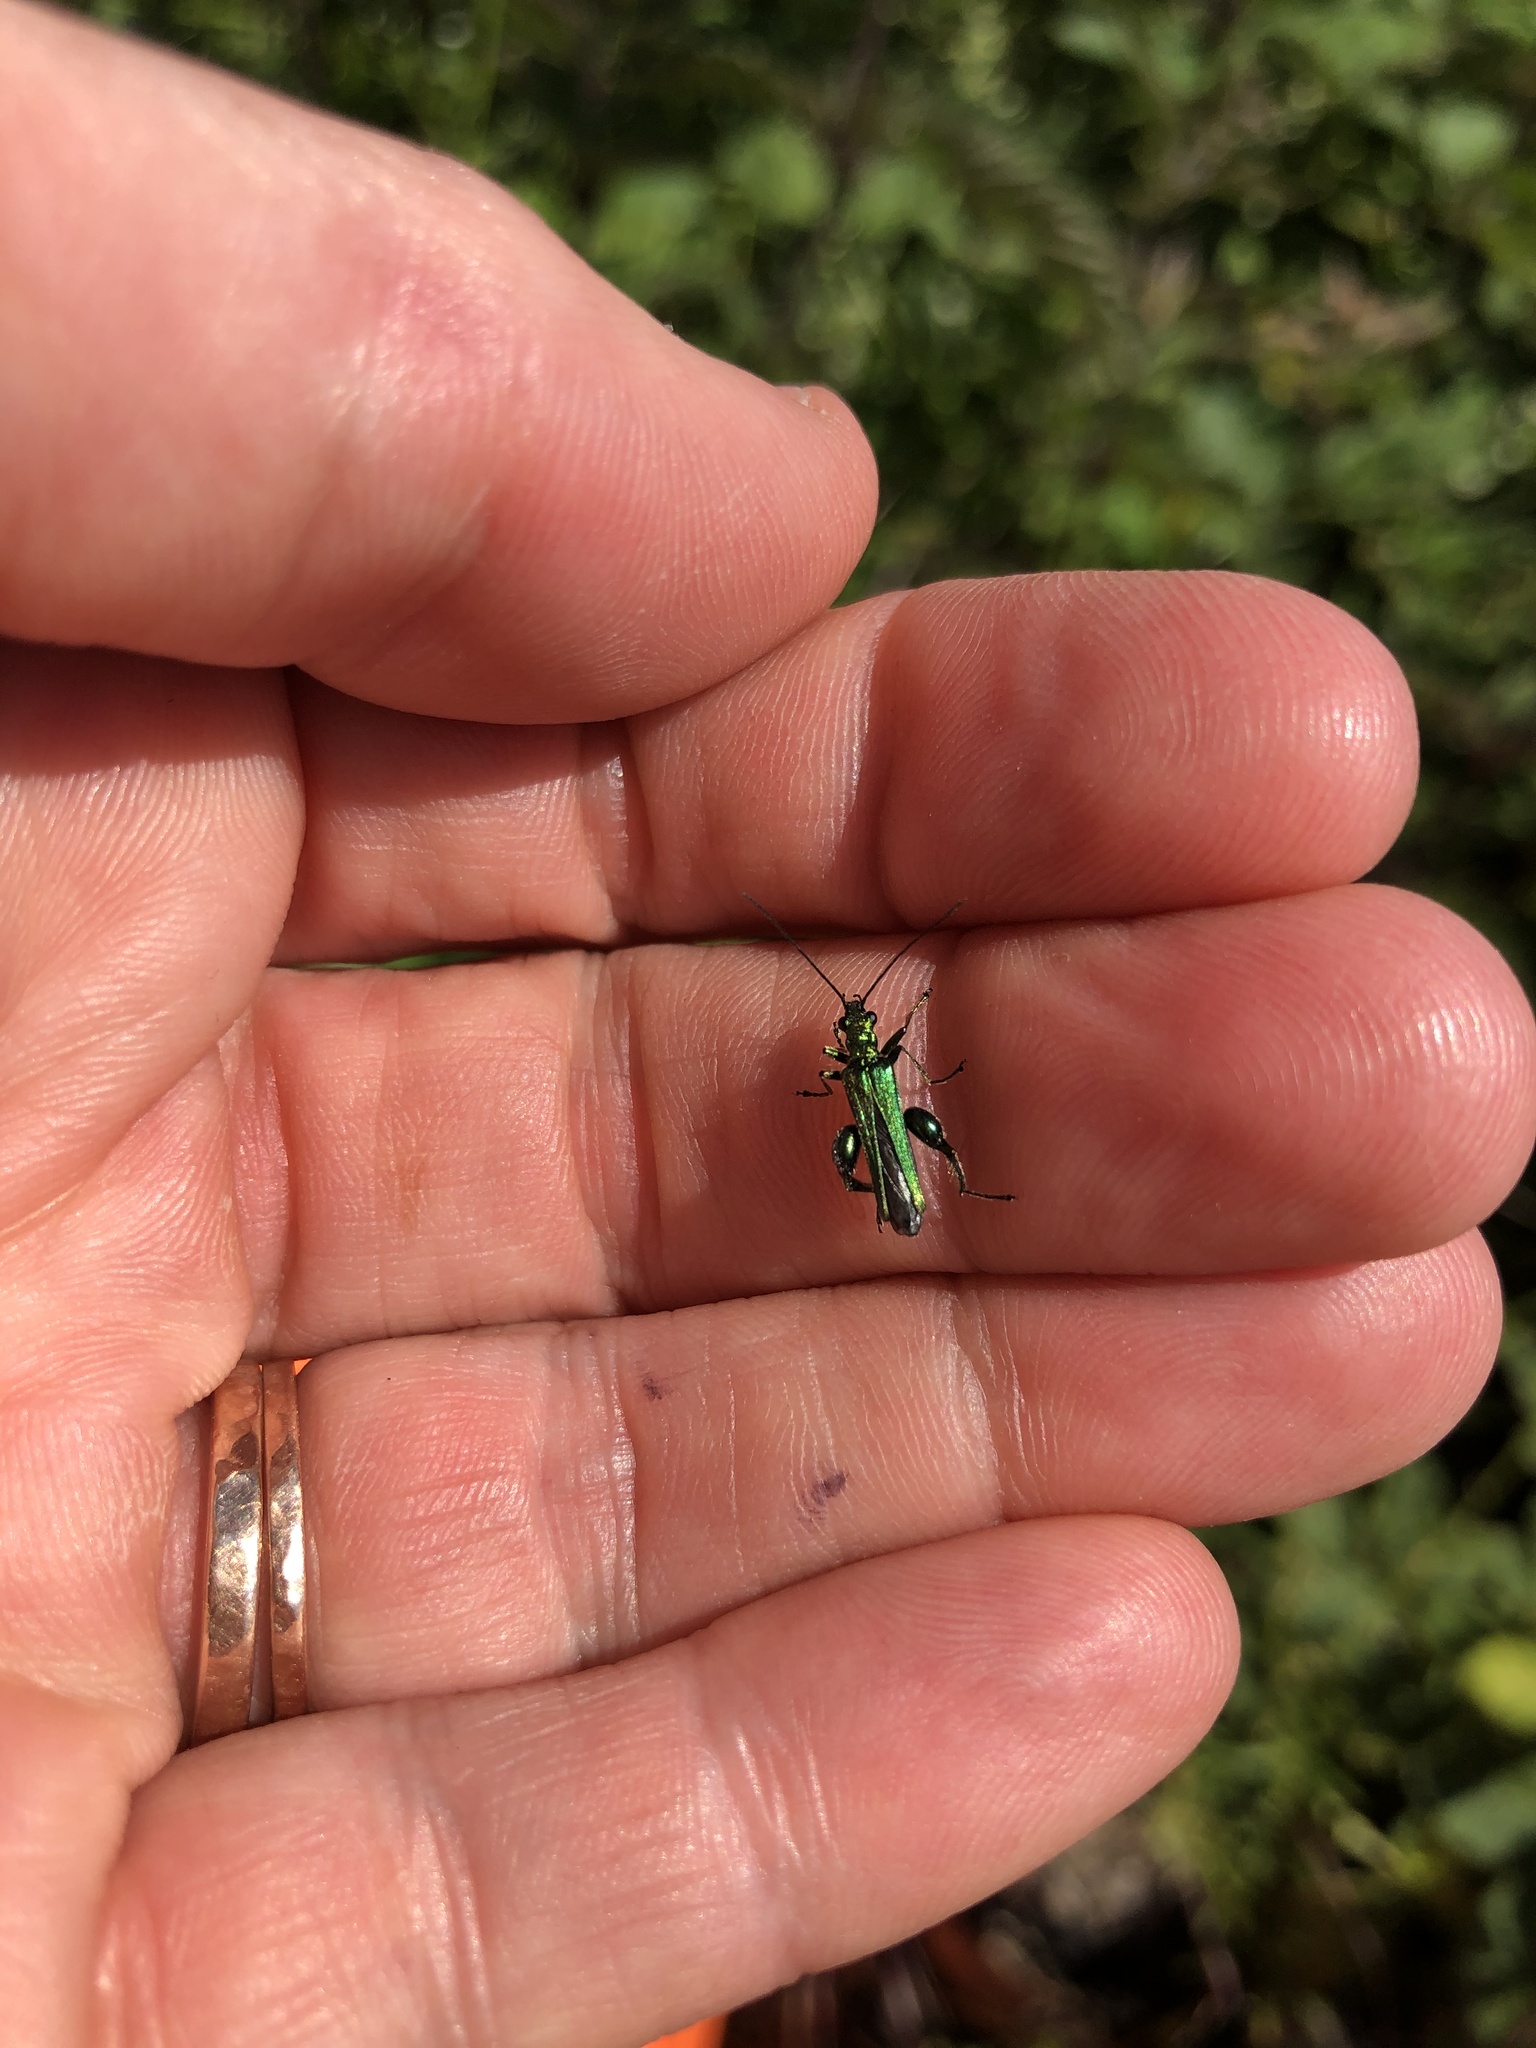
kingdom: Animalia
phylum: Arthropoda
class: Insecta
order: Coleoptera
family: Oedemeridae
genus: Oedemera
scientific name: Oedemera nobilis
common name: Swollen-thighed beetle
